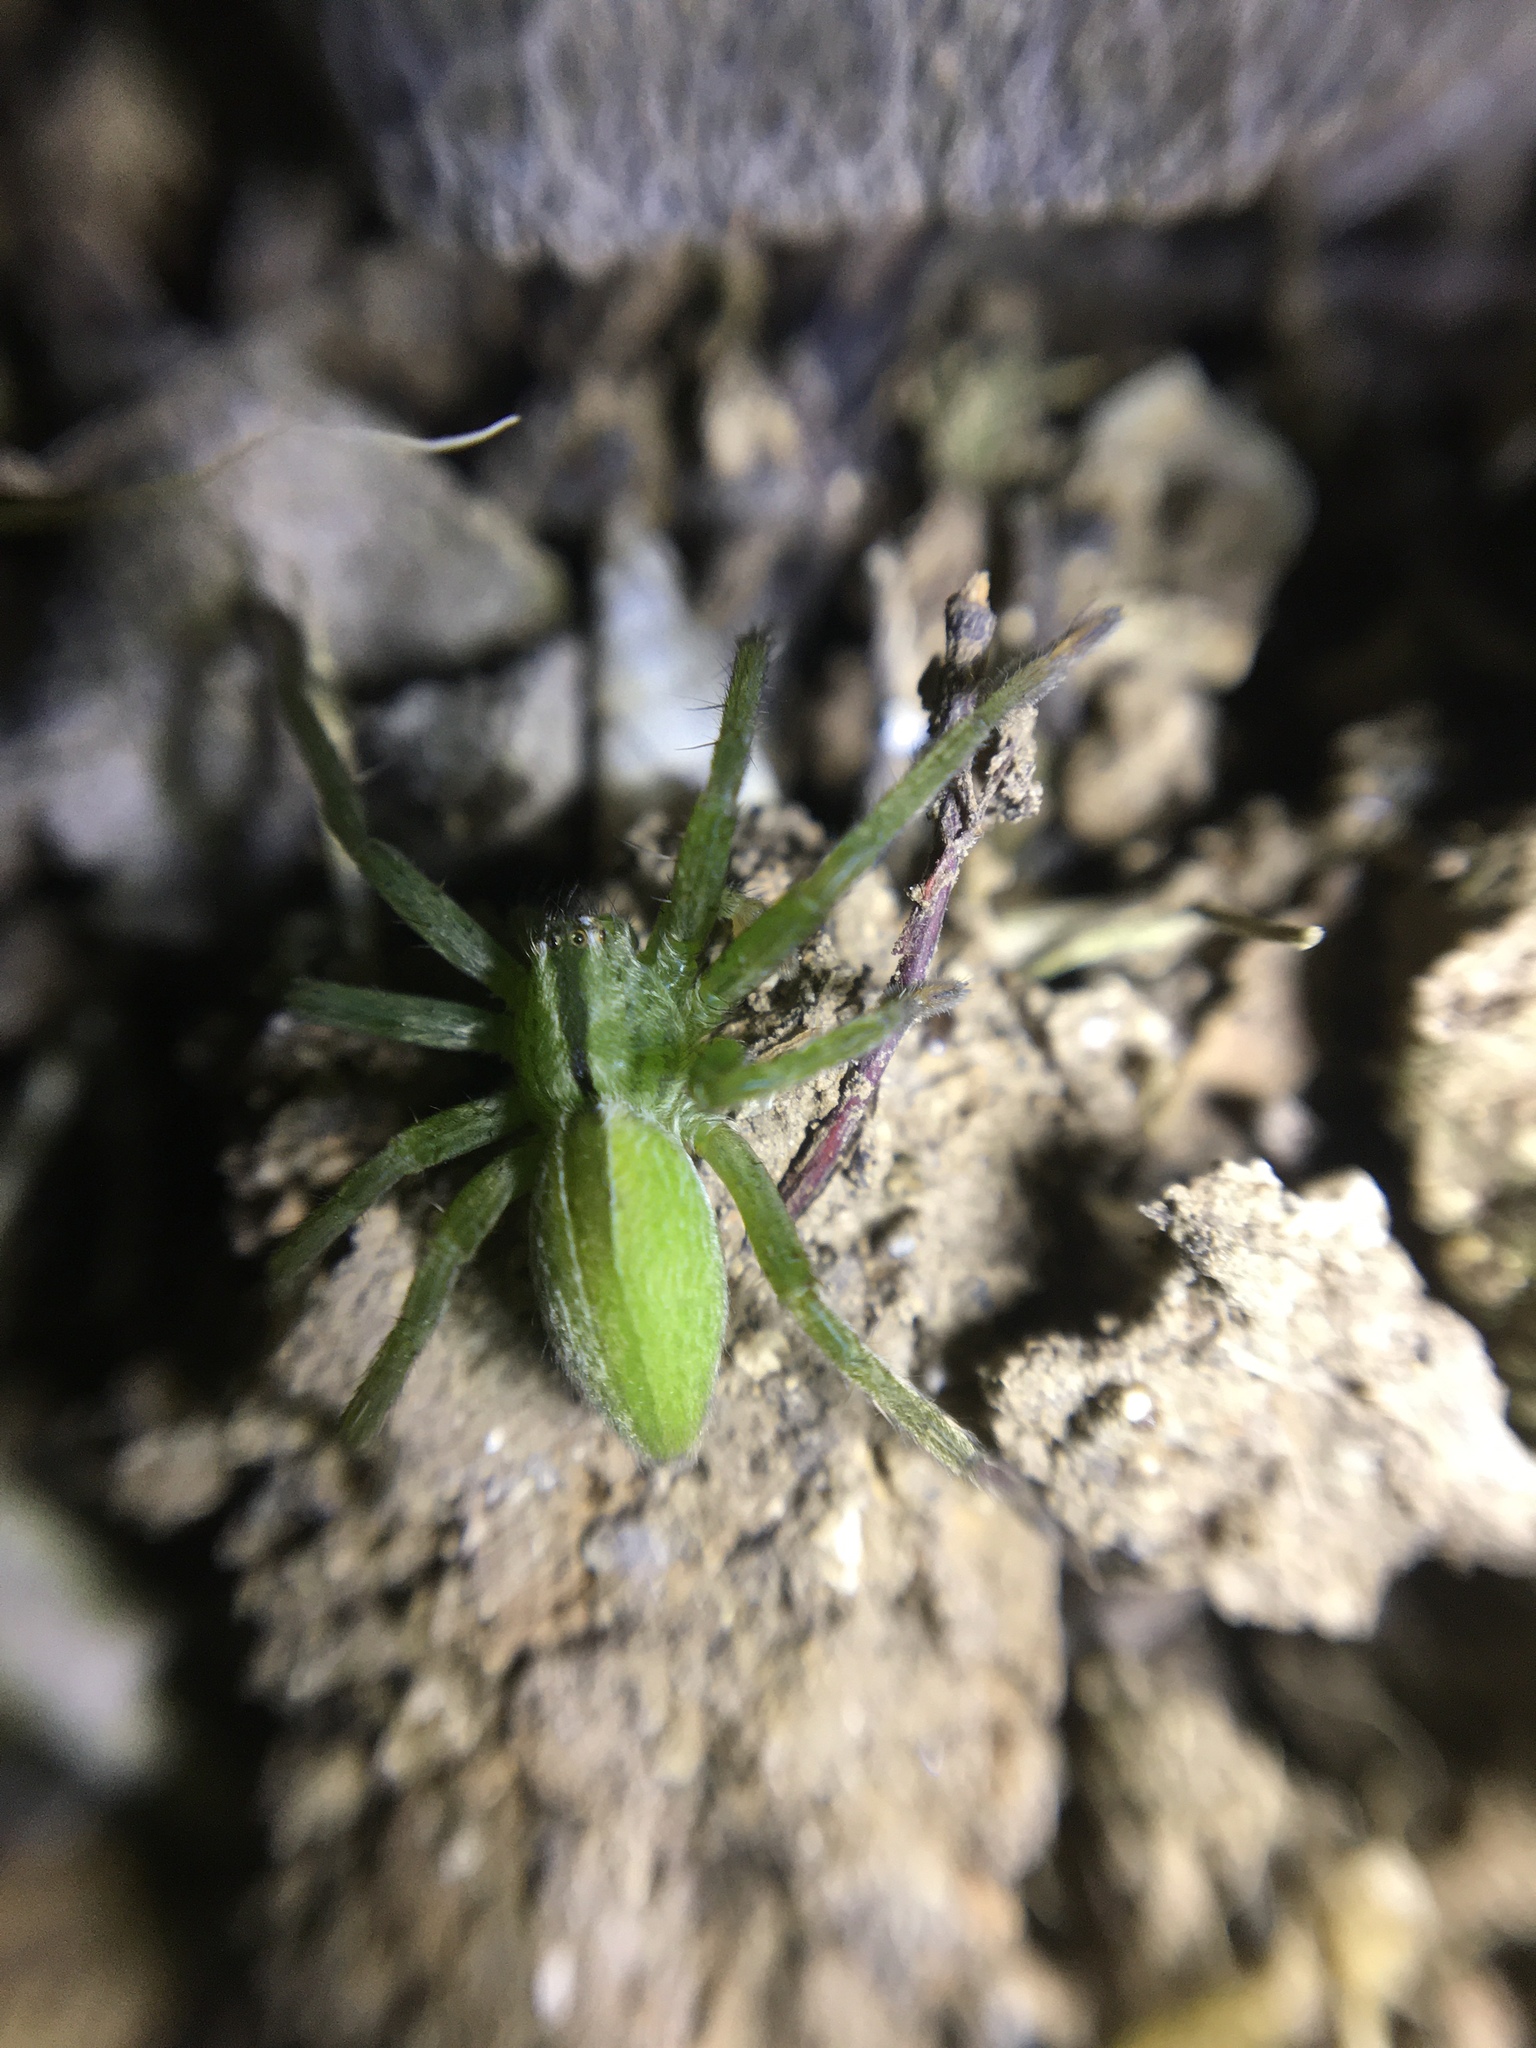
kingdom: Animalia
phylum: Arthropoda
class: Arachnida
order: Araneae
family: Sparassidae
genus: Micrommata
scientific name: Micrommata ligurina
